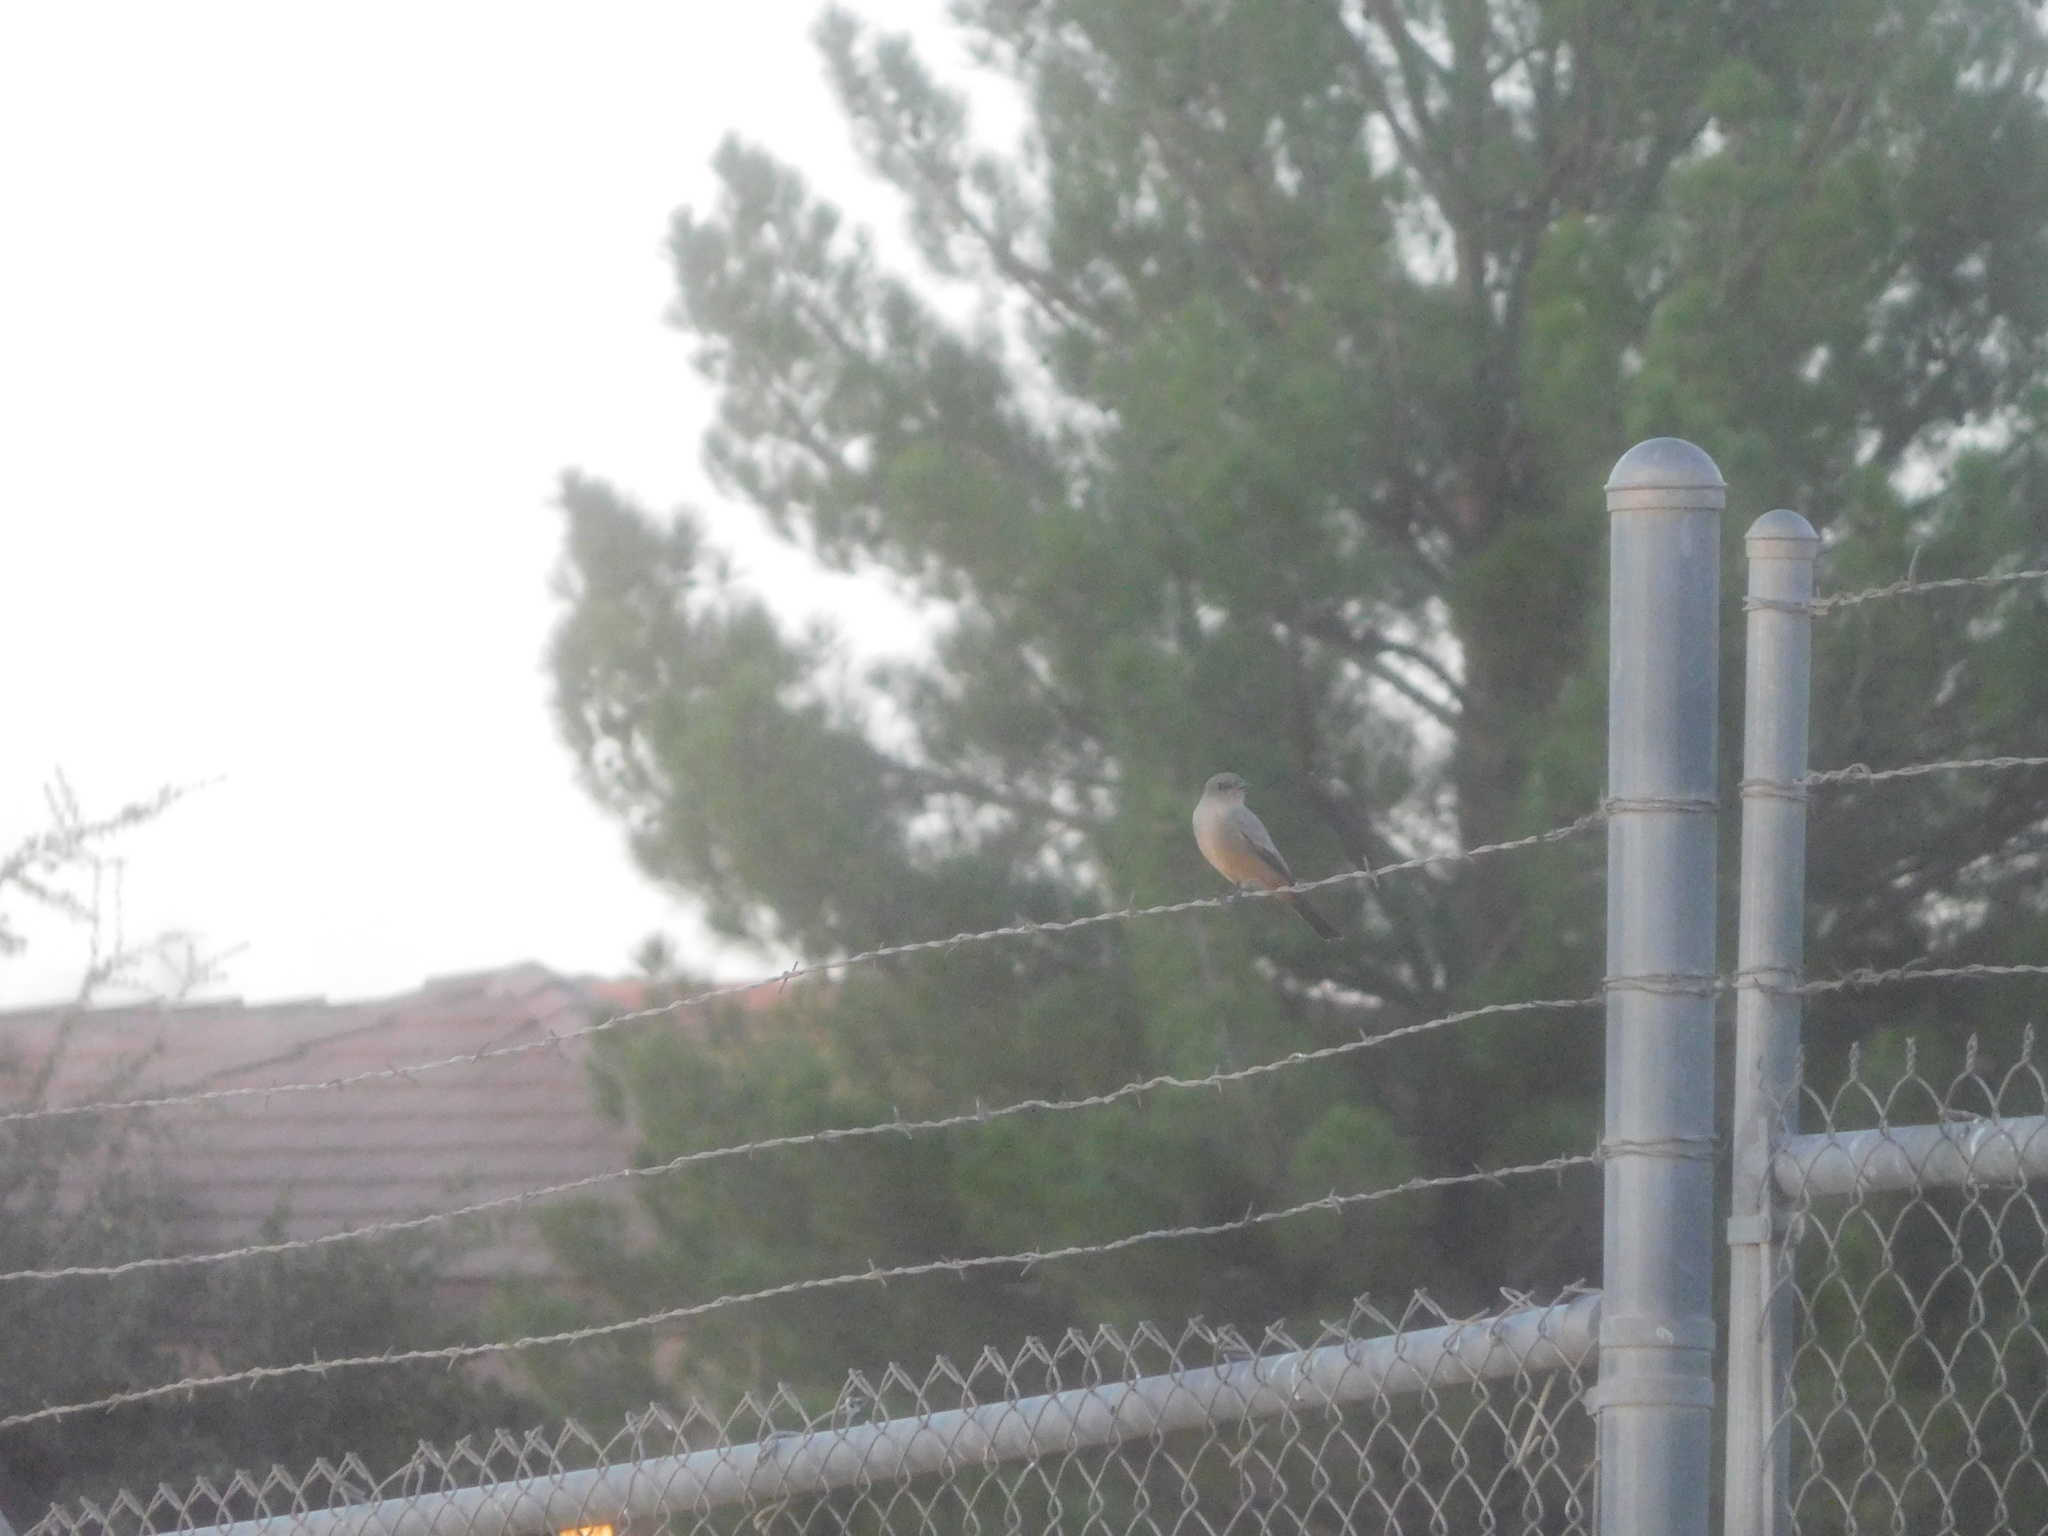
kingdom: Animalia
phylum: Chordata
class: Aves
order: Passeriformes
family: Tyrannidae
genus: Sayornis
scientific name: Sayornis saya
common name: Say's phoebe
